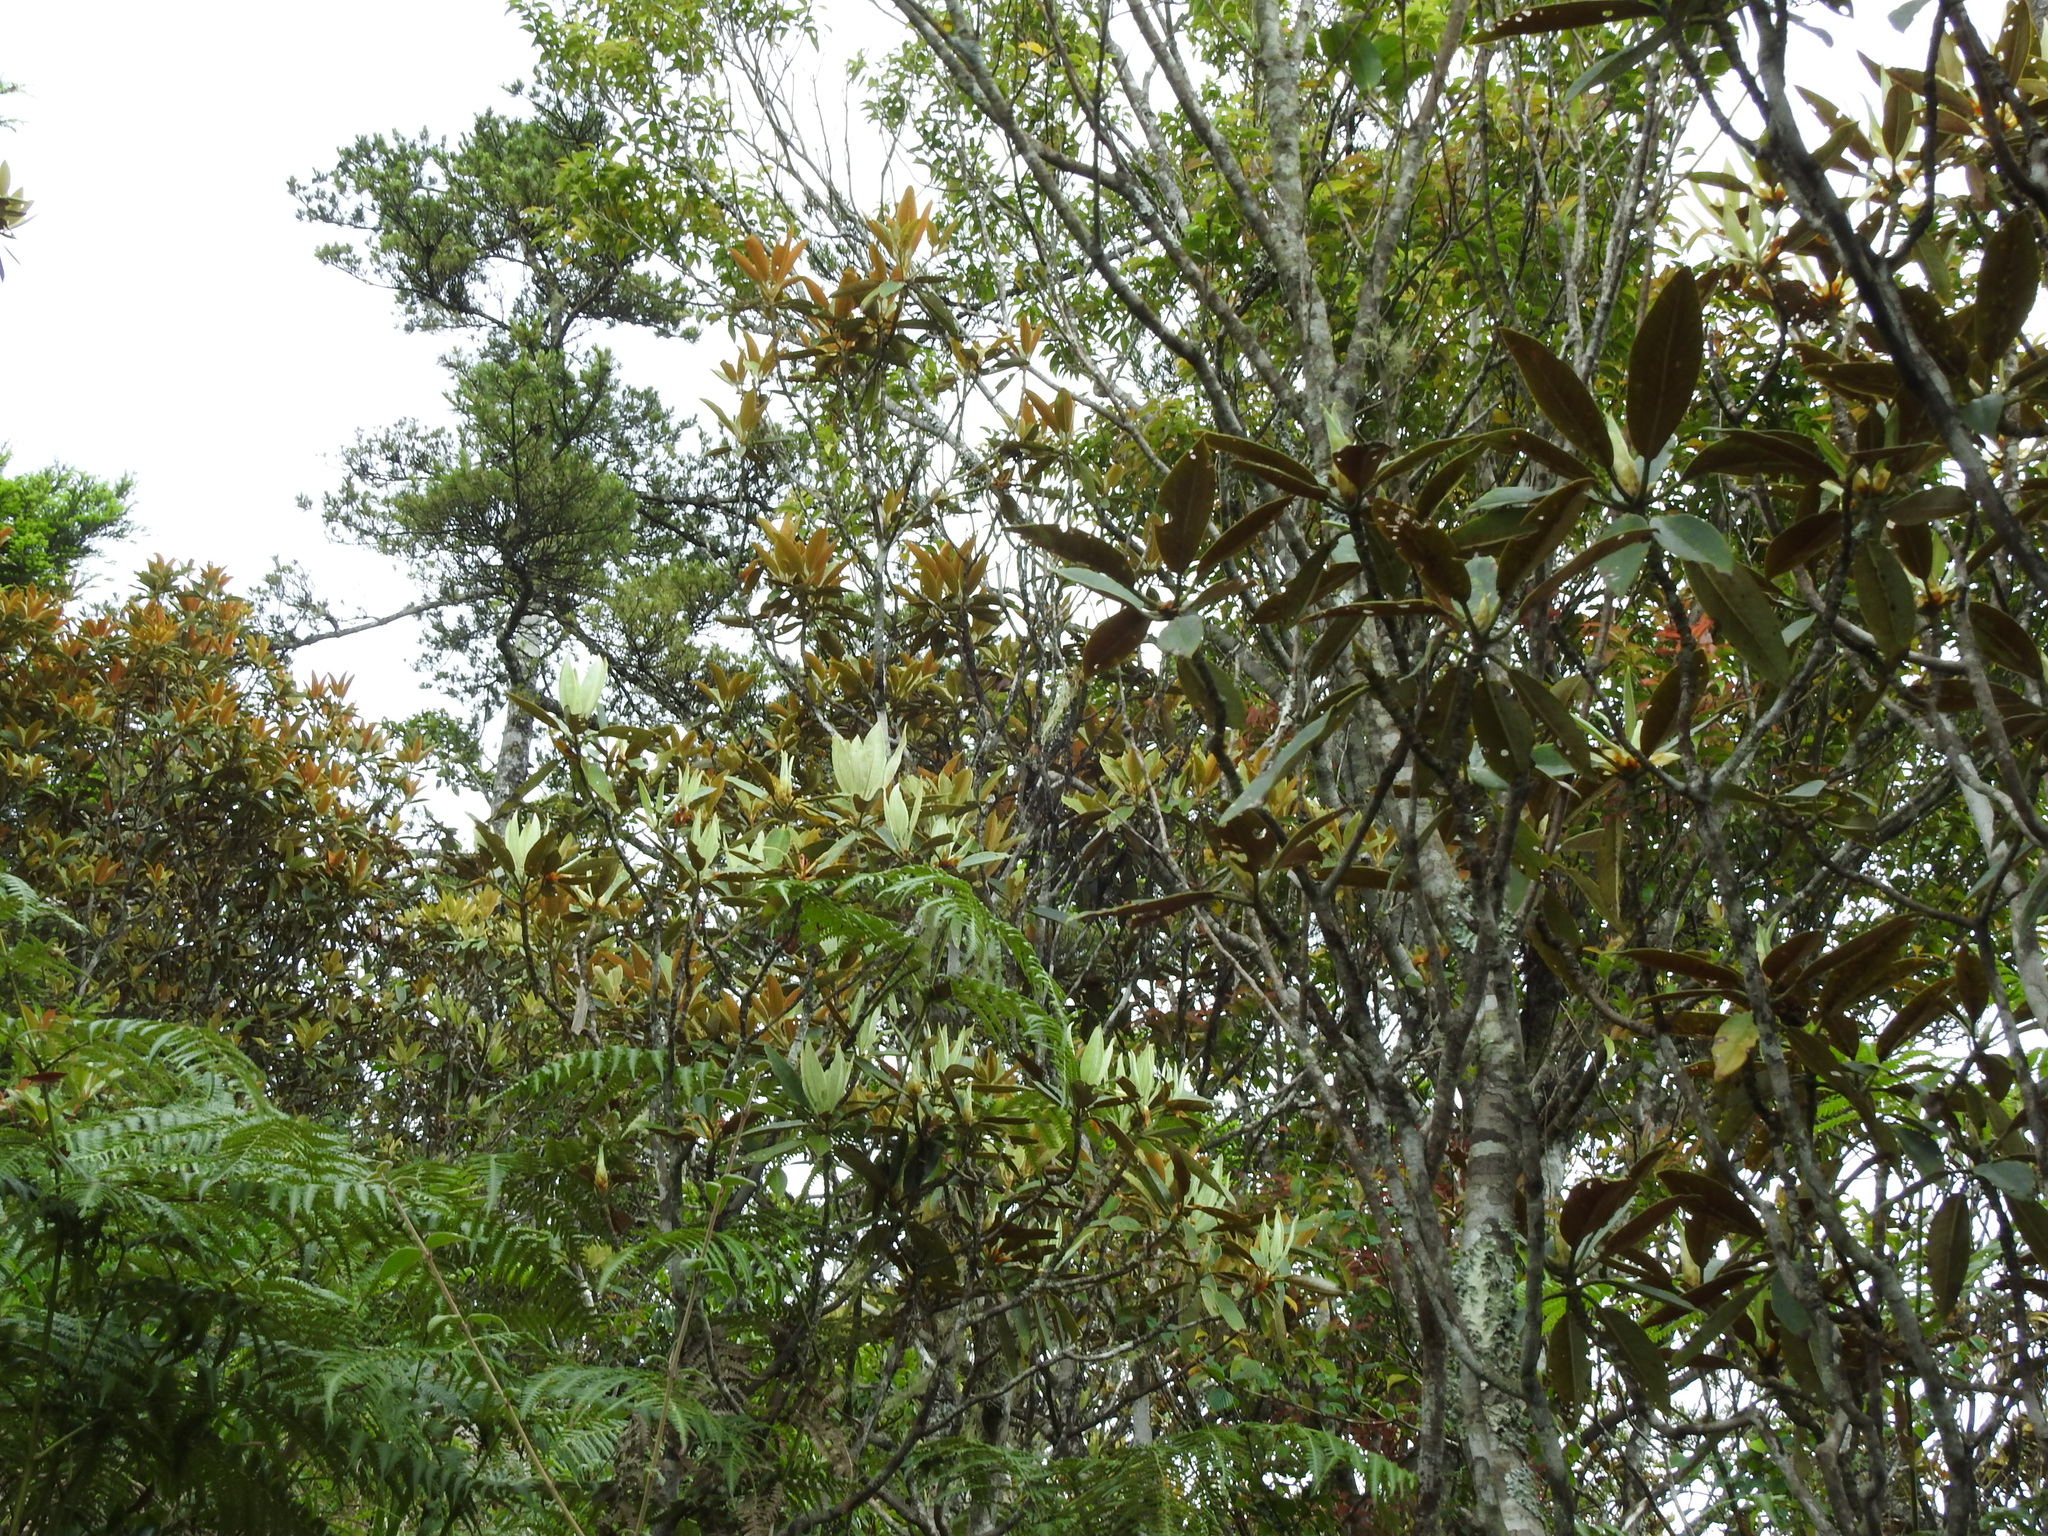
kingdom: Plantae
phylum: Tracheophyta
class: Magnoliopsida
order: Ericales
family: Ericaceae
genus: Rhododendron
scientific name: Rhododendron hyperythrum
